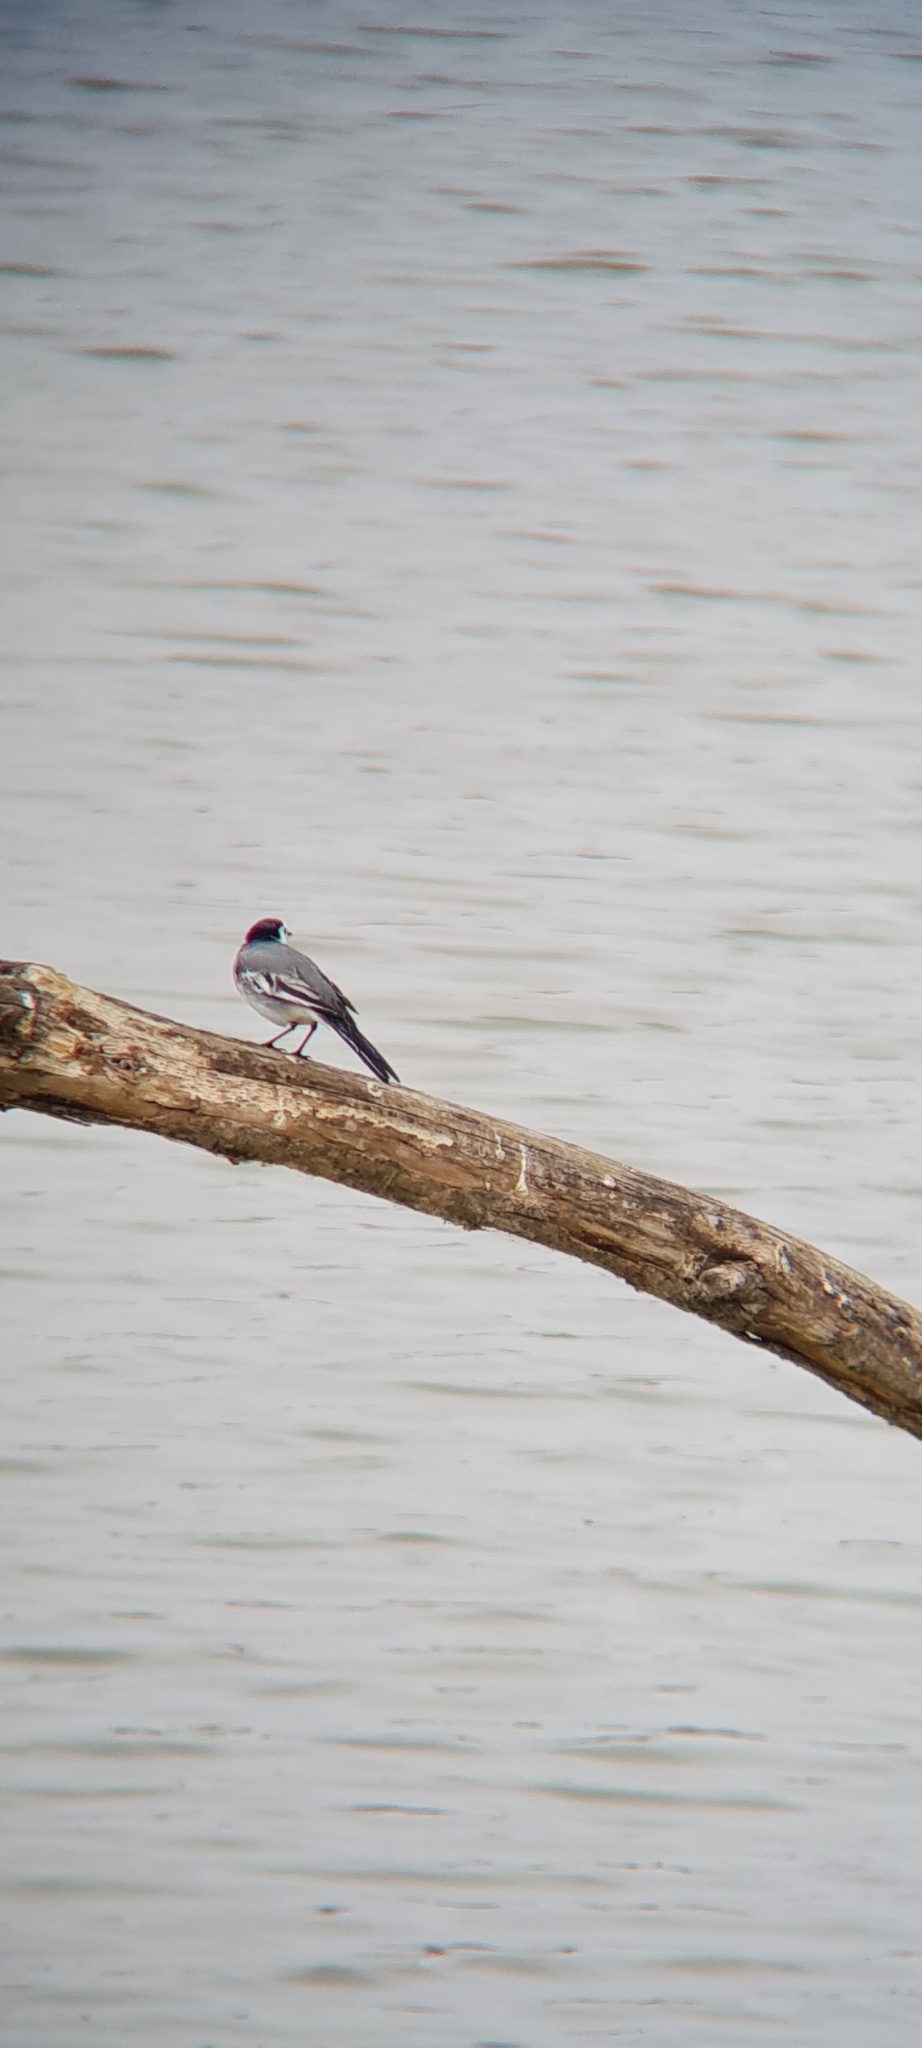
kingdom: Animalia
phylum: Chordata
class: Aves
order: Passeriformes
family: Motacillidae
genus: Motacilla
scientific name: Motacilla alba
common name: White wagtail
